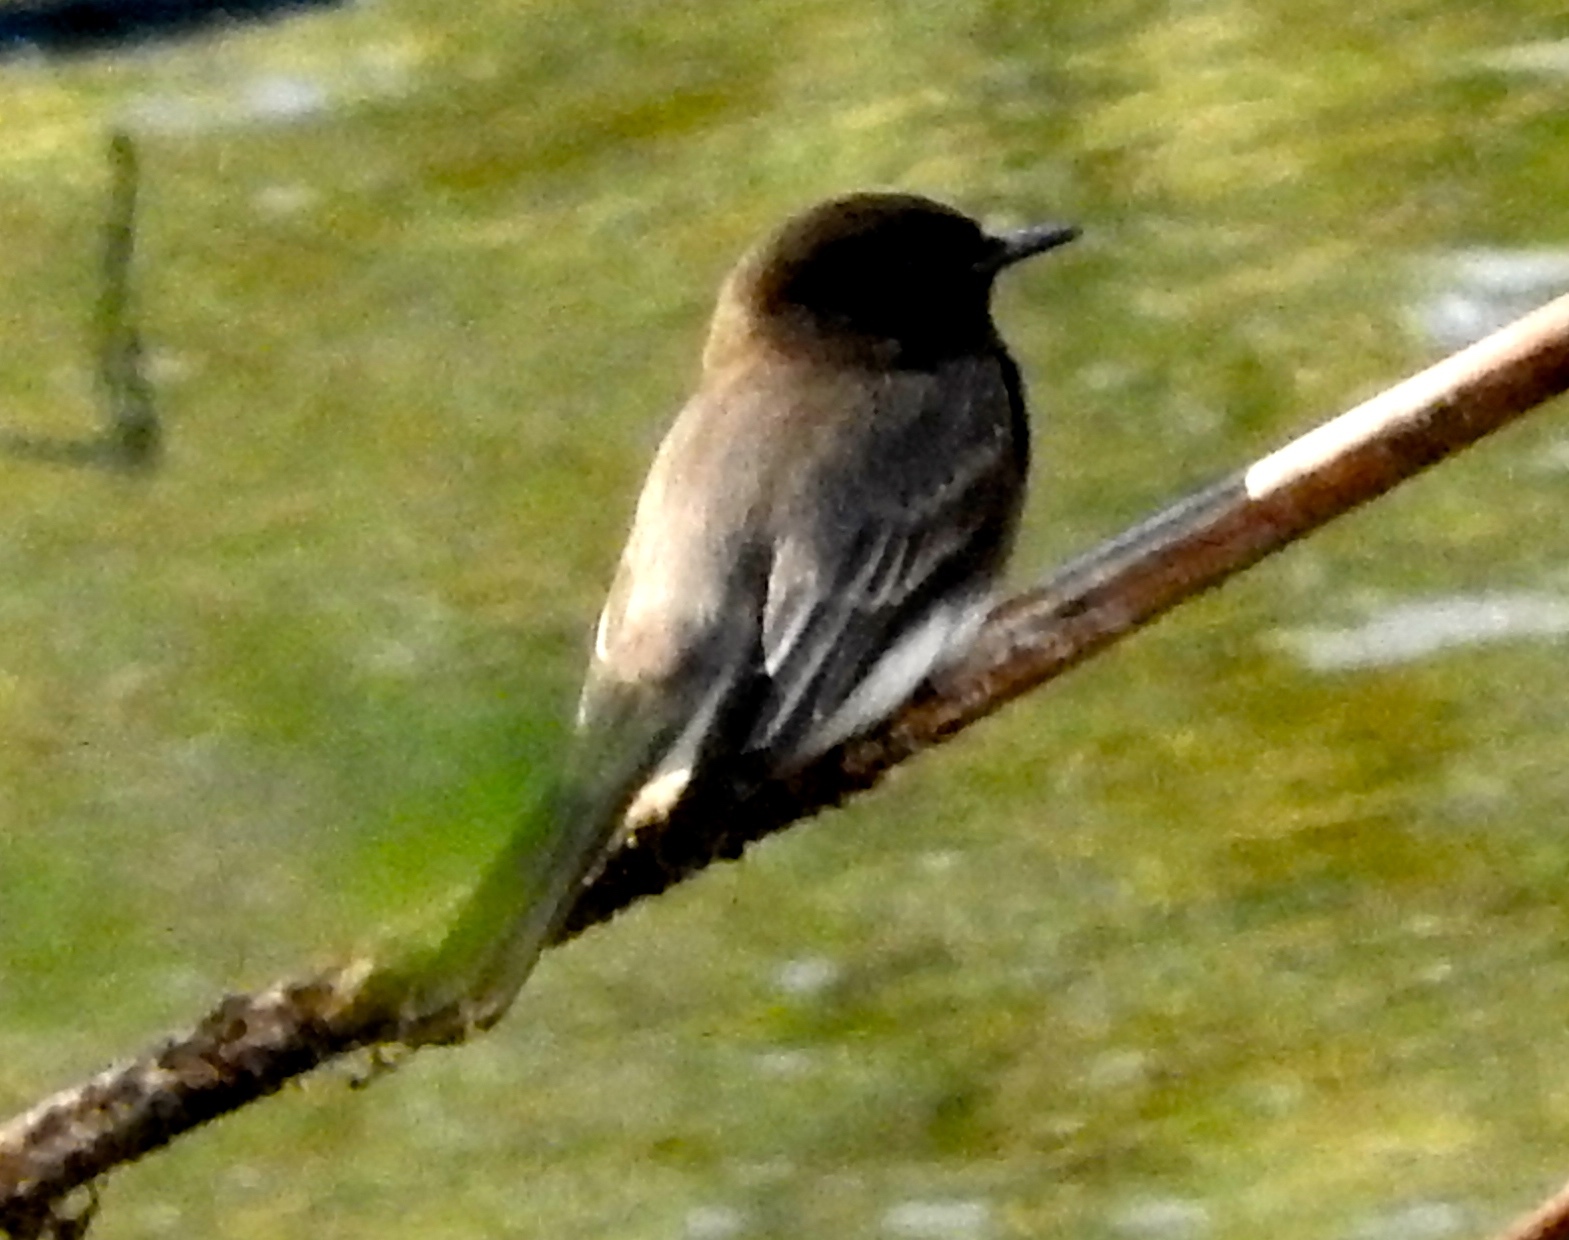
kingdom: Animalia
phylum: Chordata
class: Aves
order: Passeriformes
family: Tyrannidae
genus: Sayornis
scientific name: Sayornis nigricans
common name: Black phoebe
